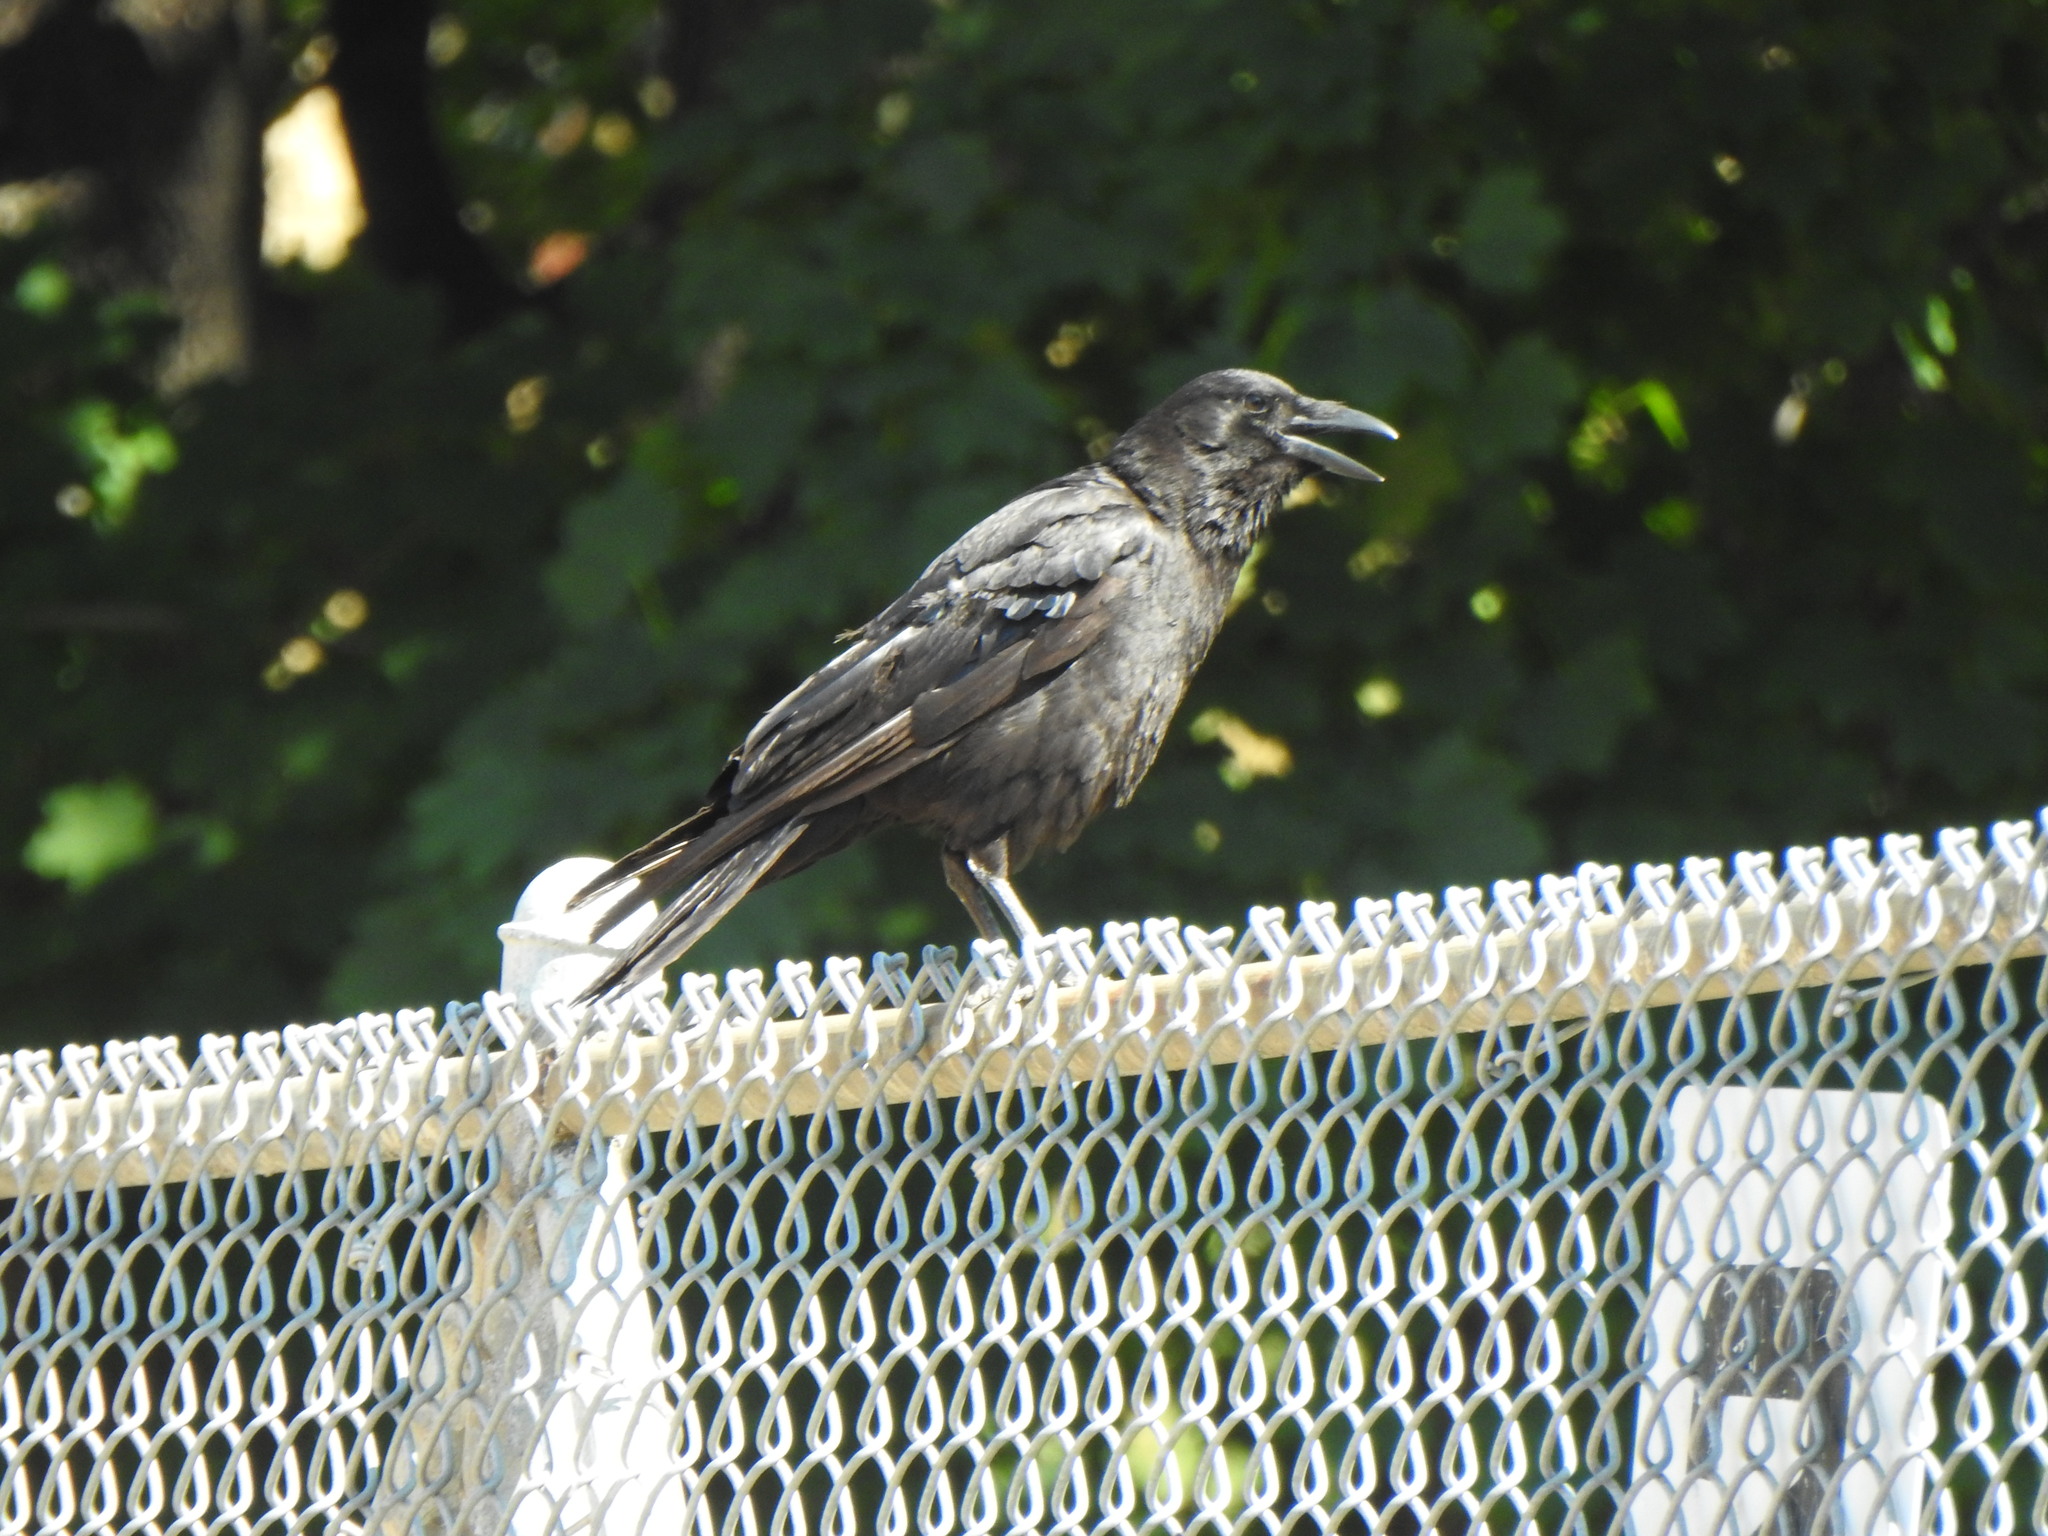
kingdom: Animalia
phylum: Chordata
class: Aves
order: Passeriformes
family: Corvidae
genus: Corvus
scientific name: Corvus brachyrhynchos
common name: American crow
